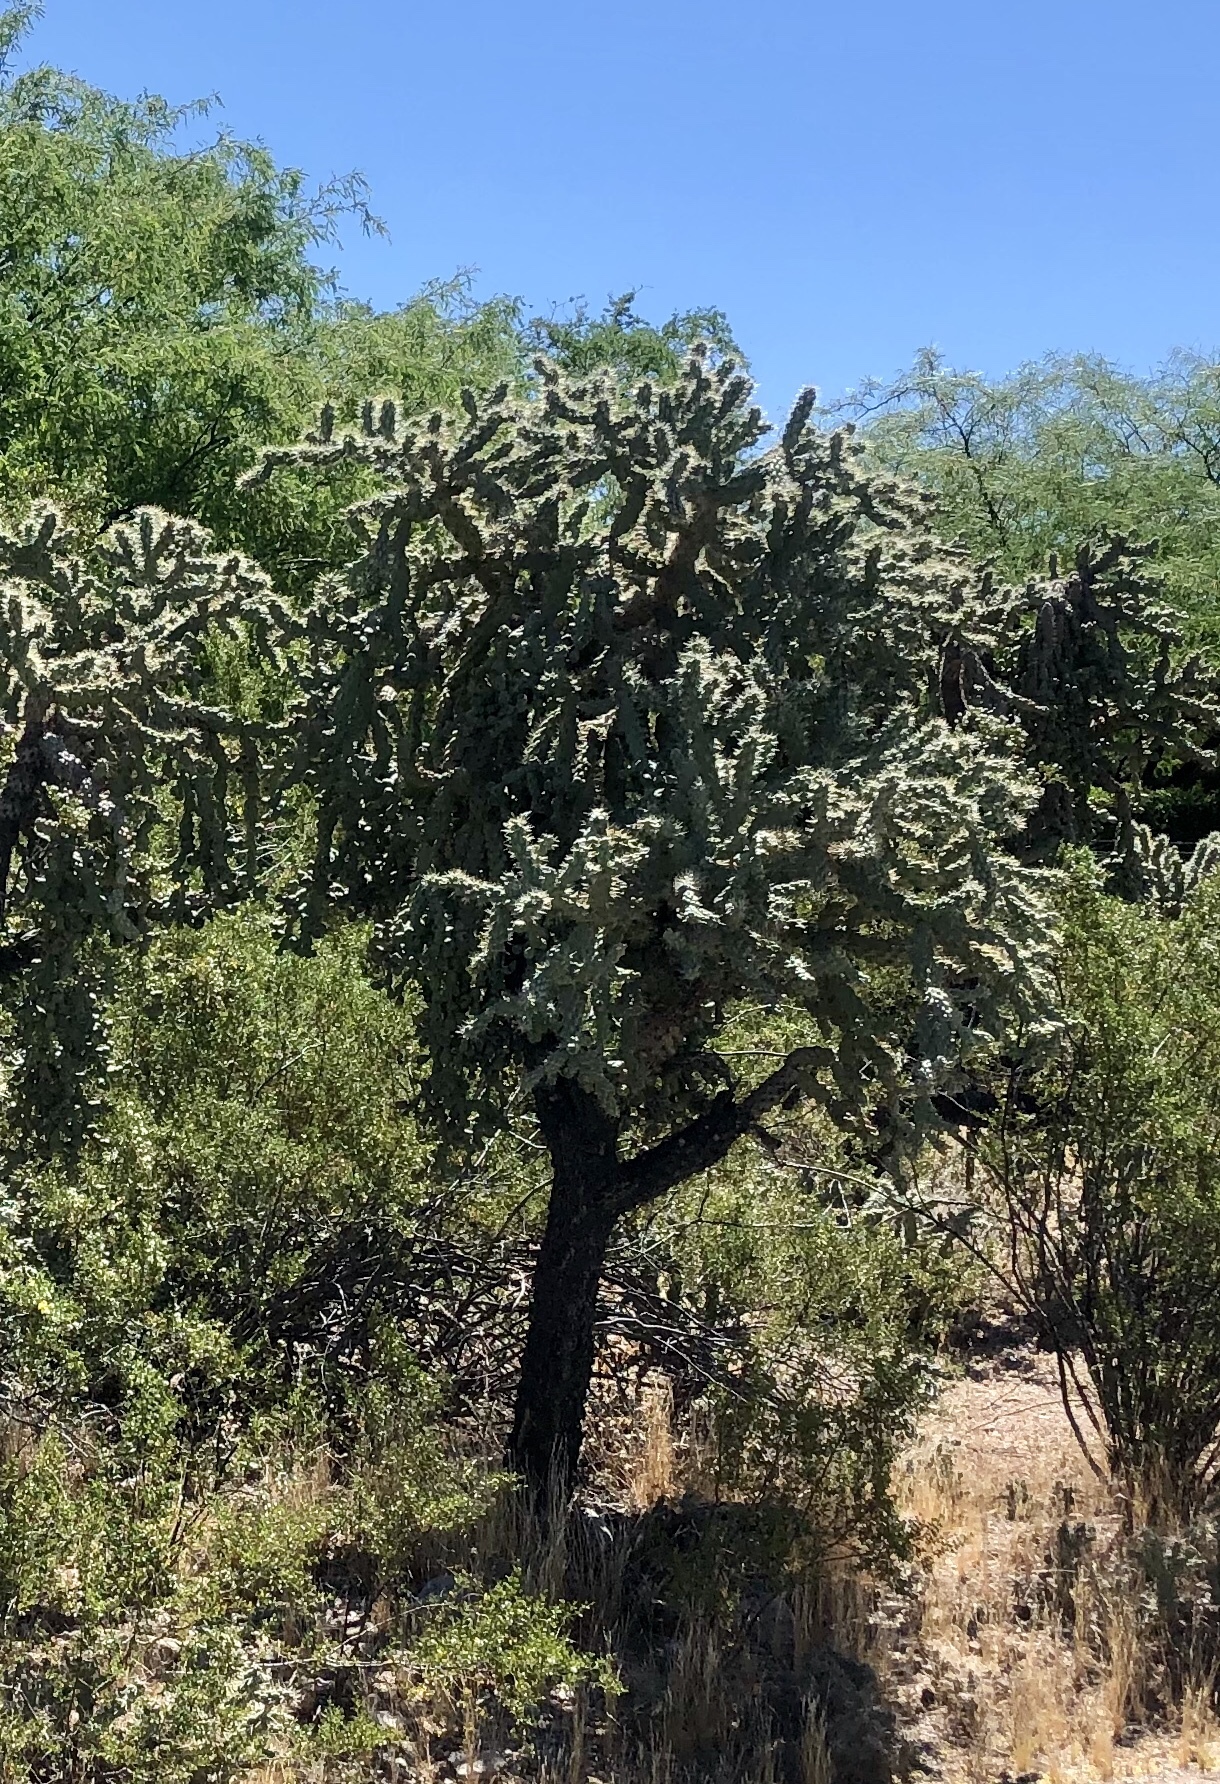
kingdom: Plantae
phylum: Tracheophyta
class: Magnoliopsida
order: Caryophyllales
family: Cactaceae
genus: Cylindropuntia
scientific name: Cylindropuntia fulgida
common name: Jumping cholla
